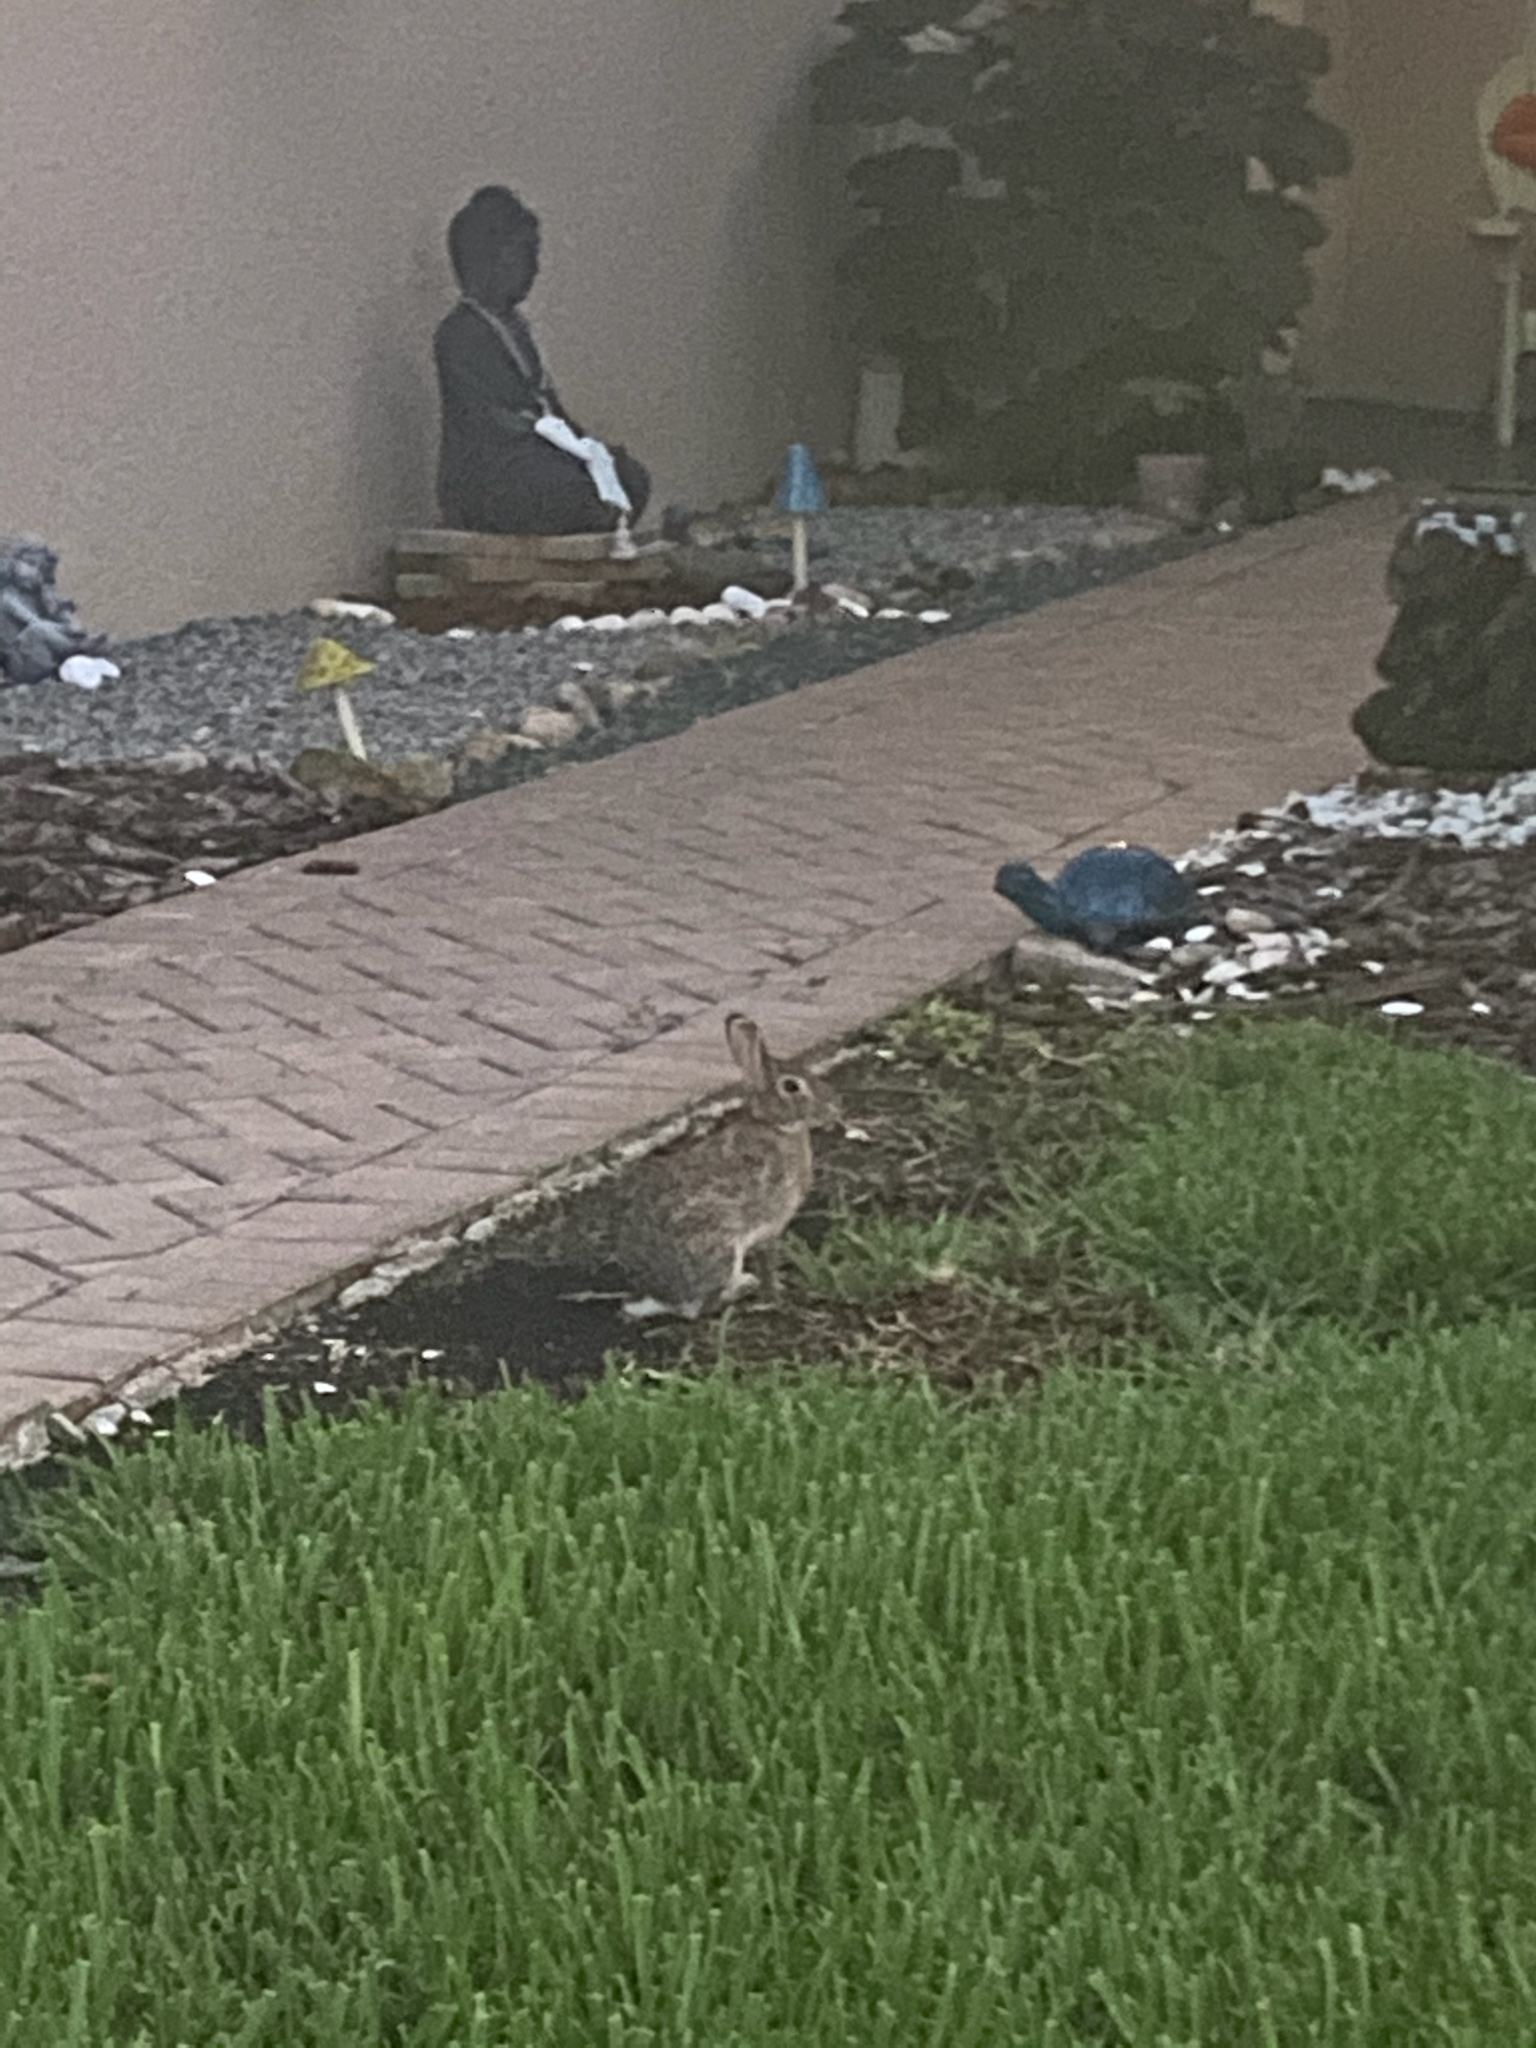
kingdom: Animalia
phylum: Chordata
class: Mammalia
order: Lagomorpha
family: Leporidae
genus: Sylvilagus
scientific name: Sylvilagus floridanus
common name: Eastern cottontail
